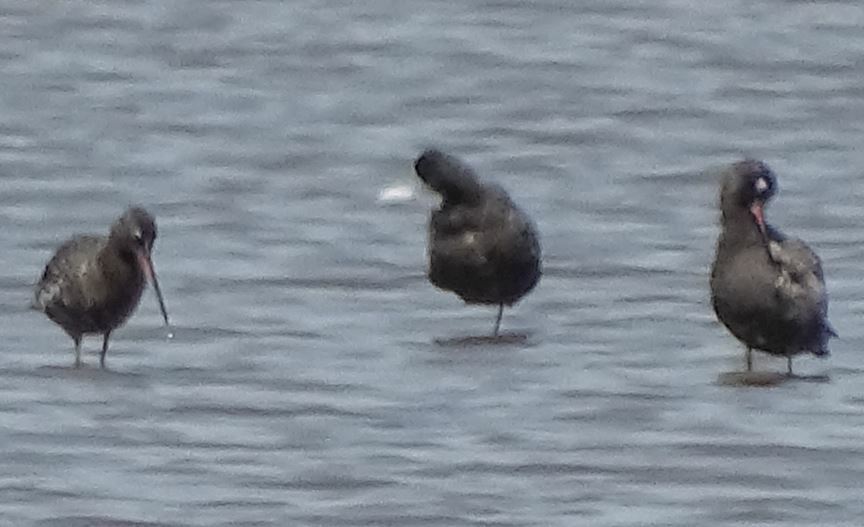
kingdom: Animalia
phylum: Chordata
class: Aves
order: Charadriiformes
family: Scolopacidae
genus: Tringa
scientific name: Tringa erythropus
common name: Spotted redshank
